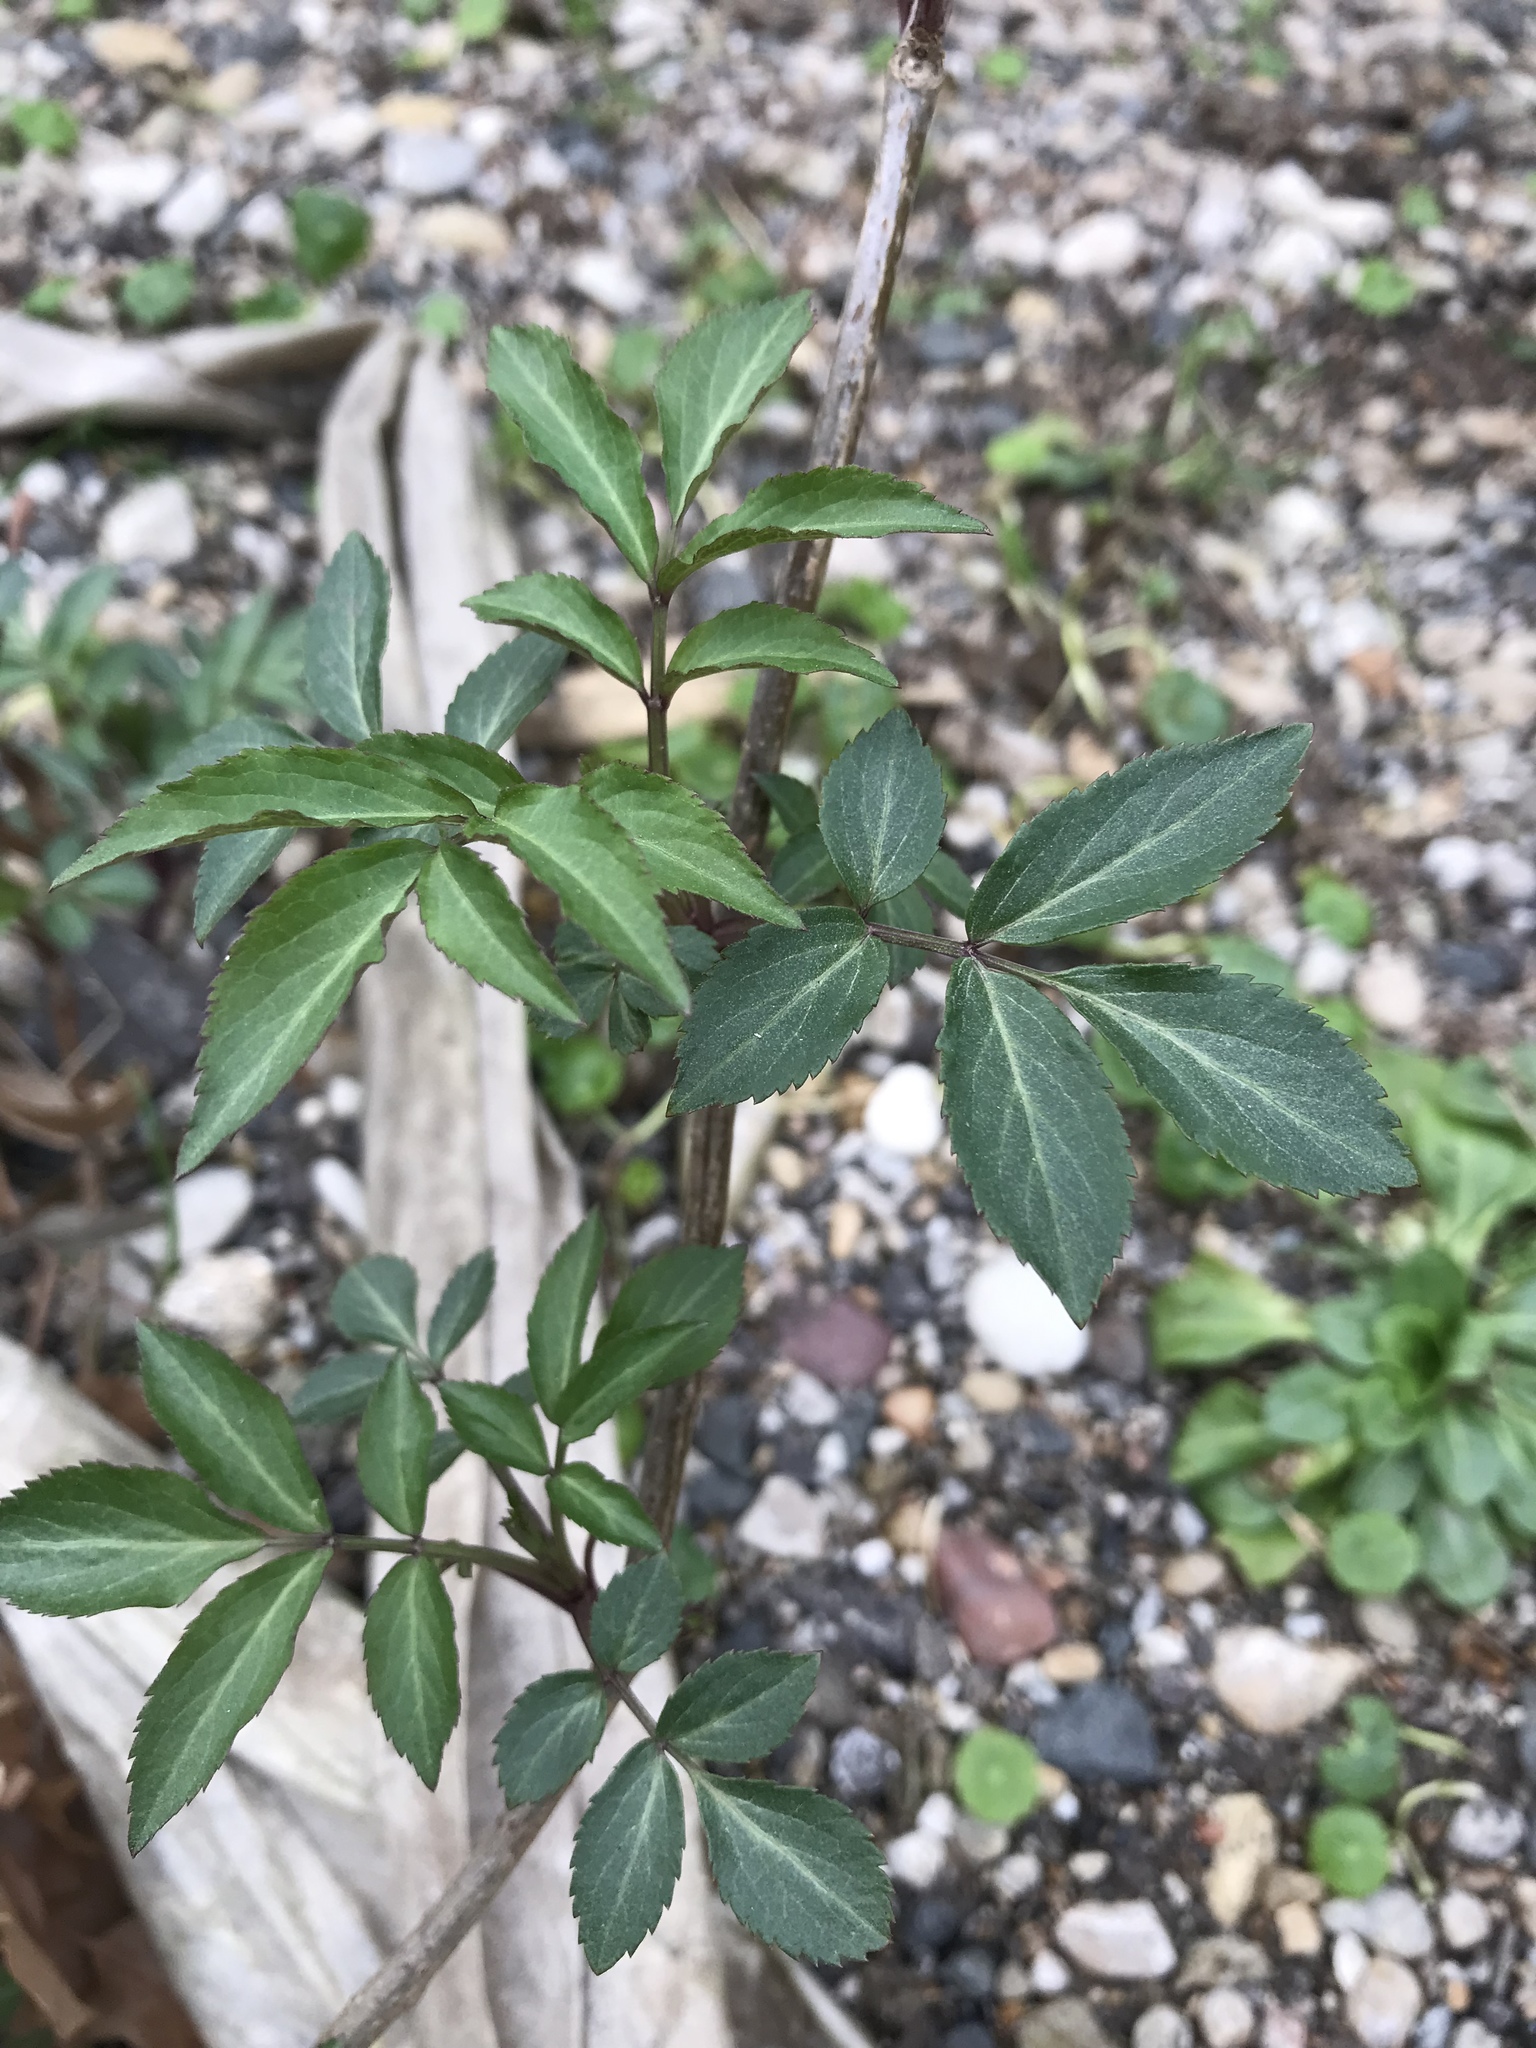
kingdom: Plantae
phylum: Tracheophyta
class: Magnoliopsida
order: Dipsacales
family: Viburnaceae
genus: Sambucus
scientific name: Sambucus canadensis
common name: American elder
